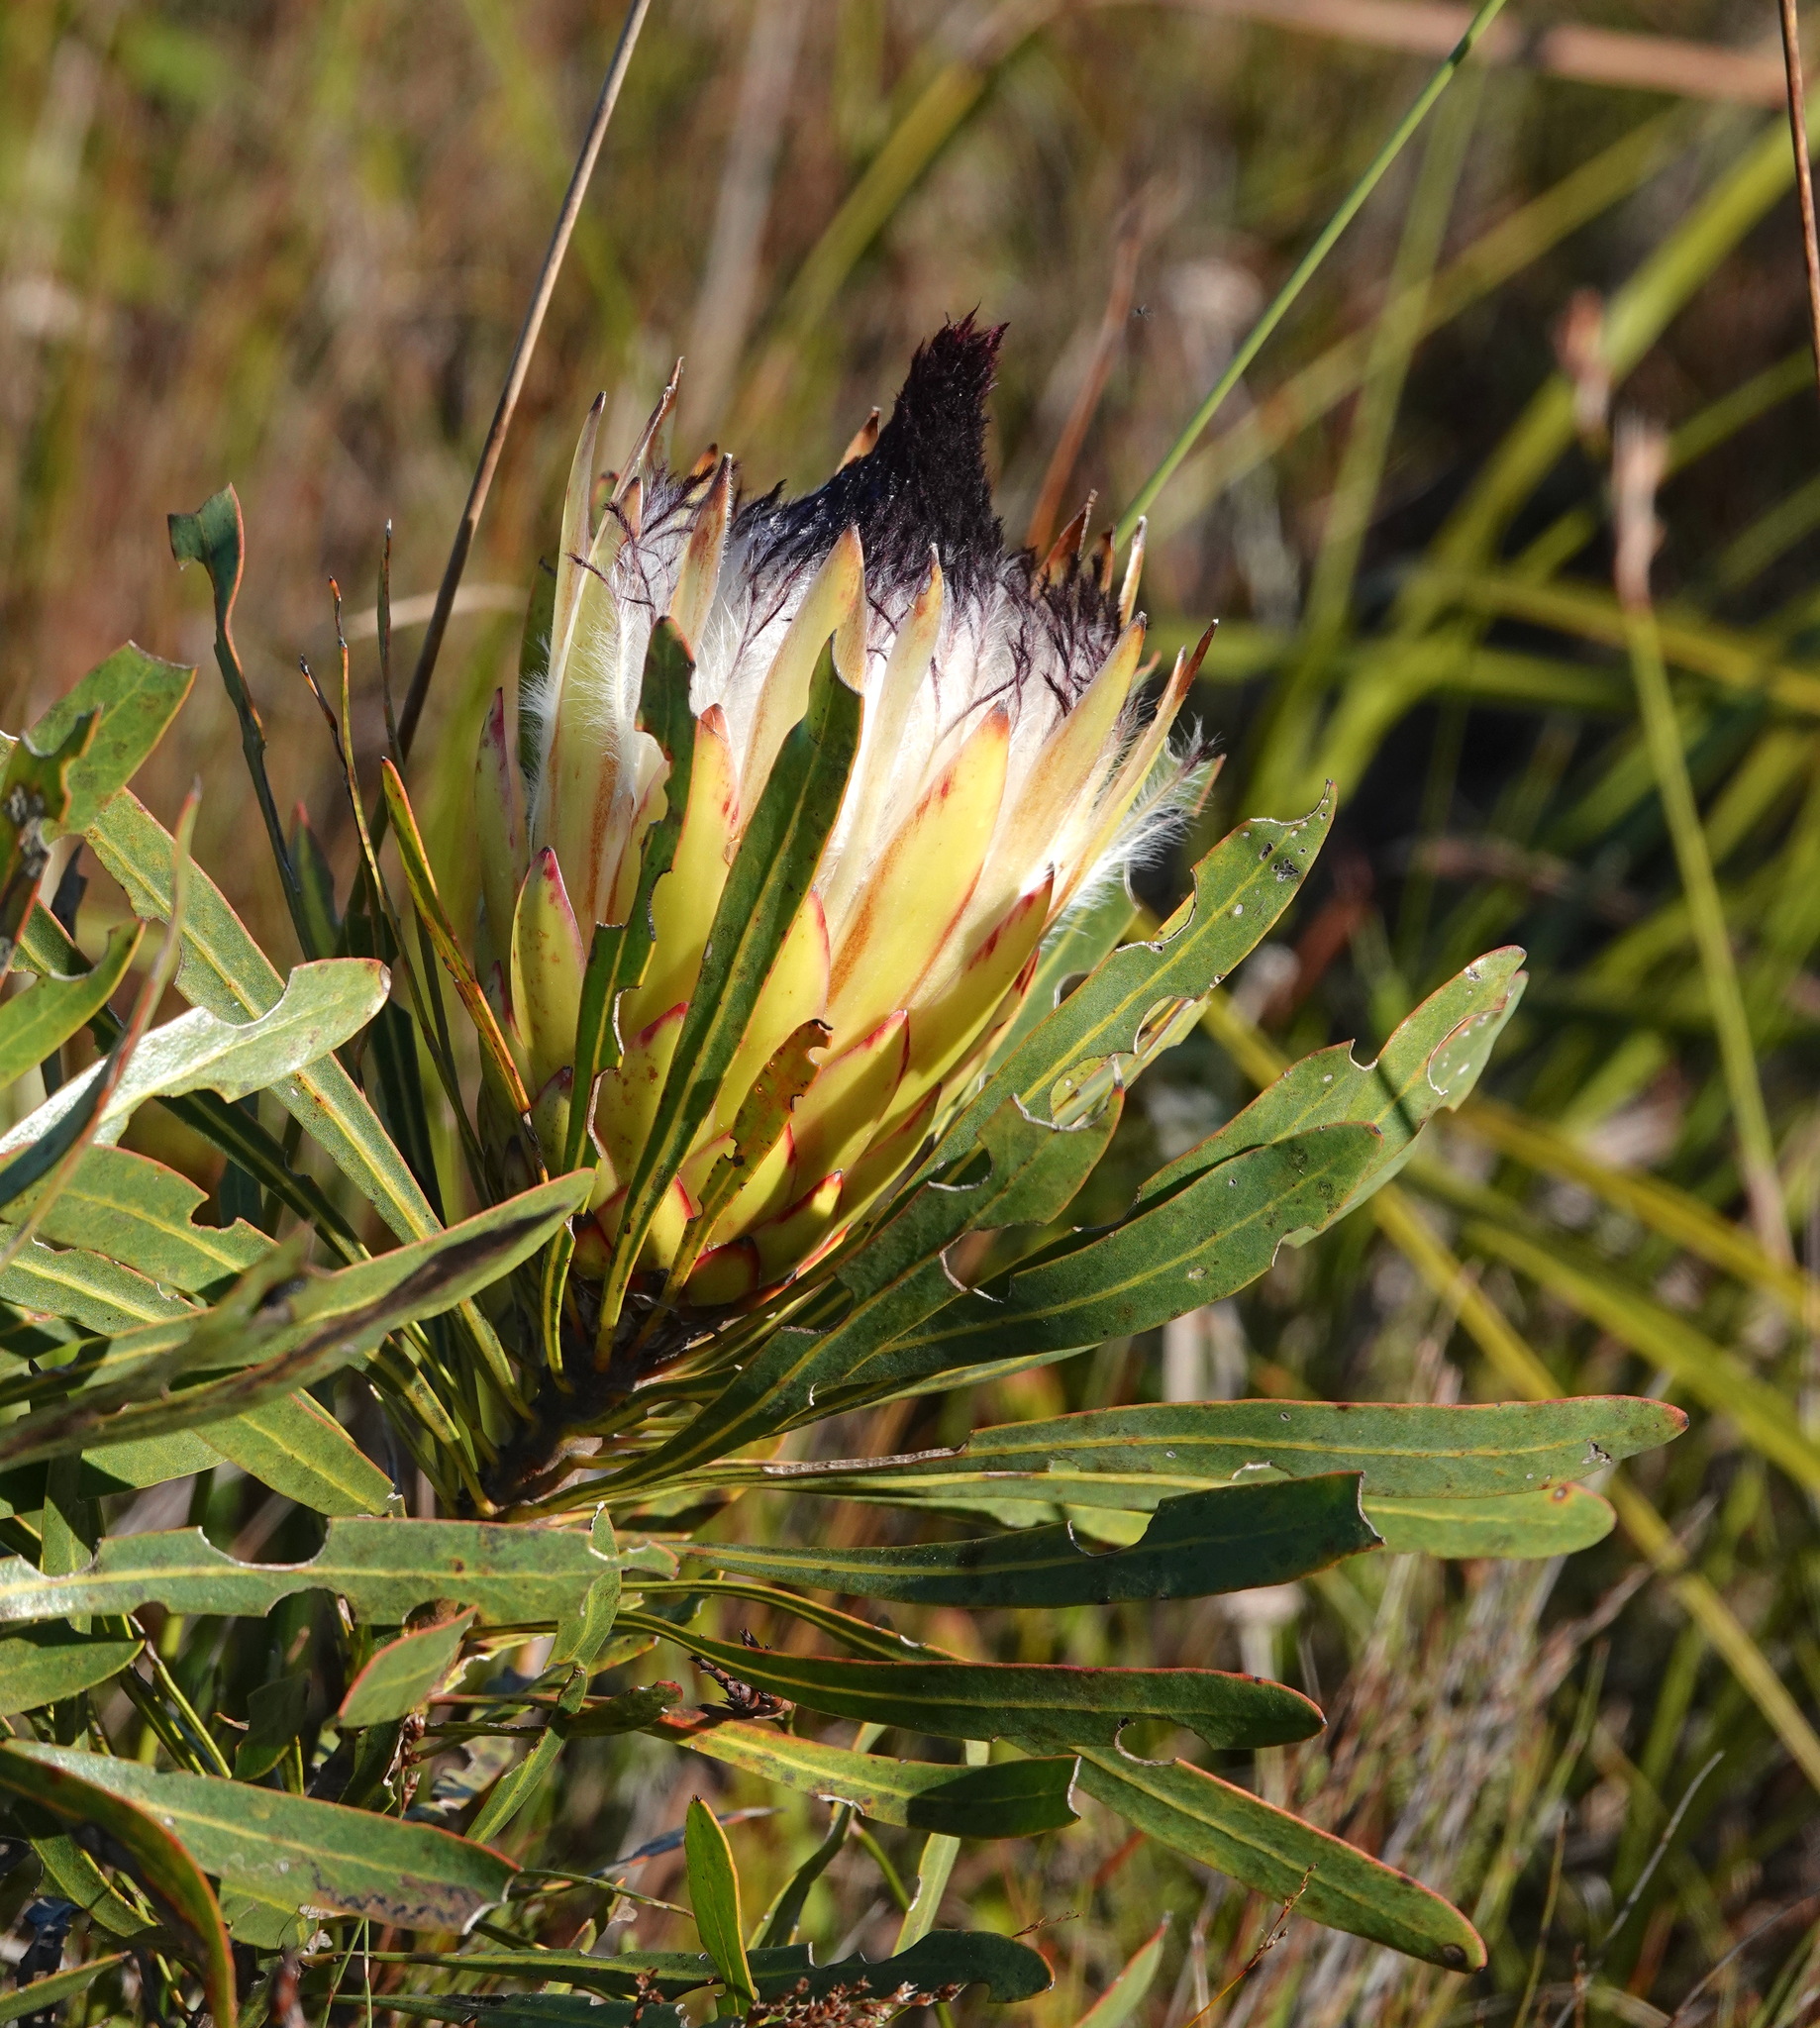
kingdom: Plantae
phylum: Tracheophyta
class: Magnoliopsida
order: Proteales
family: Proteaceae
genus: Protea
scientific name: Protea longifolia
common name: Long-leaf sugarbush
